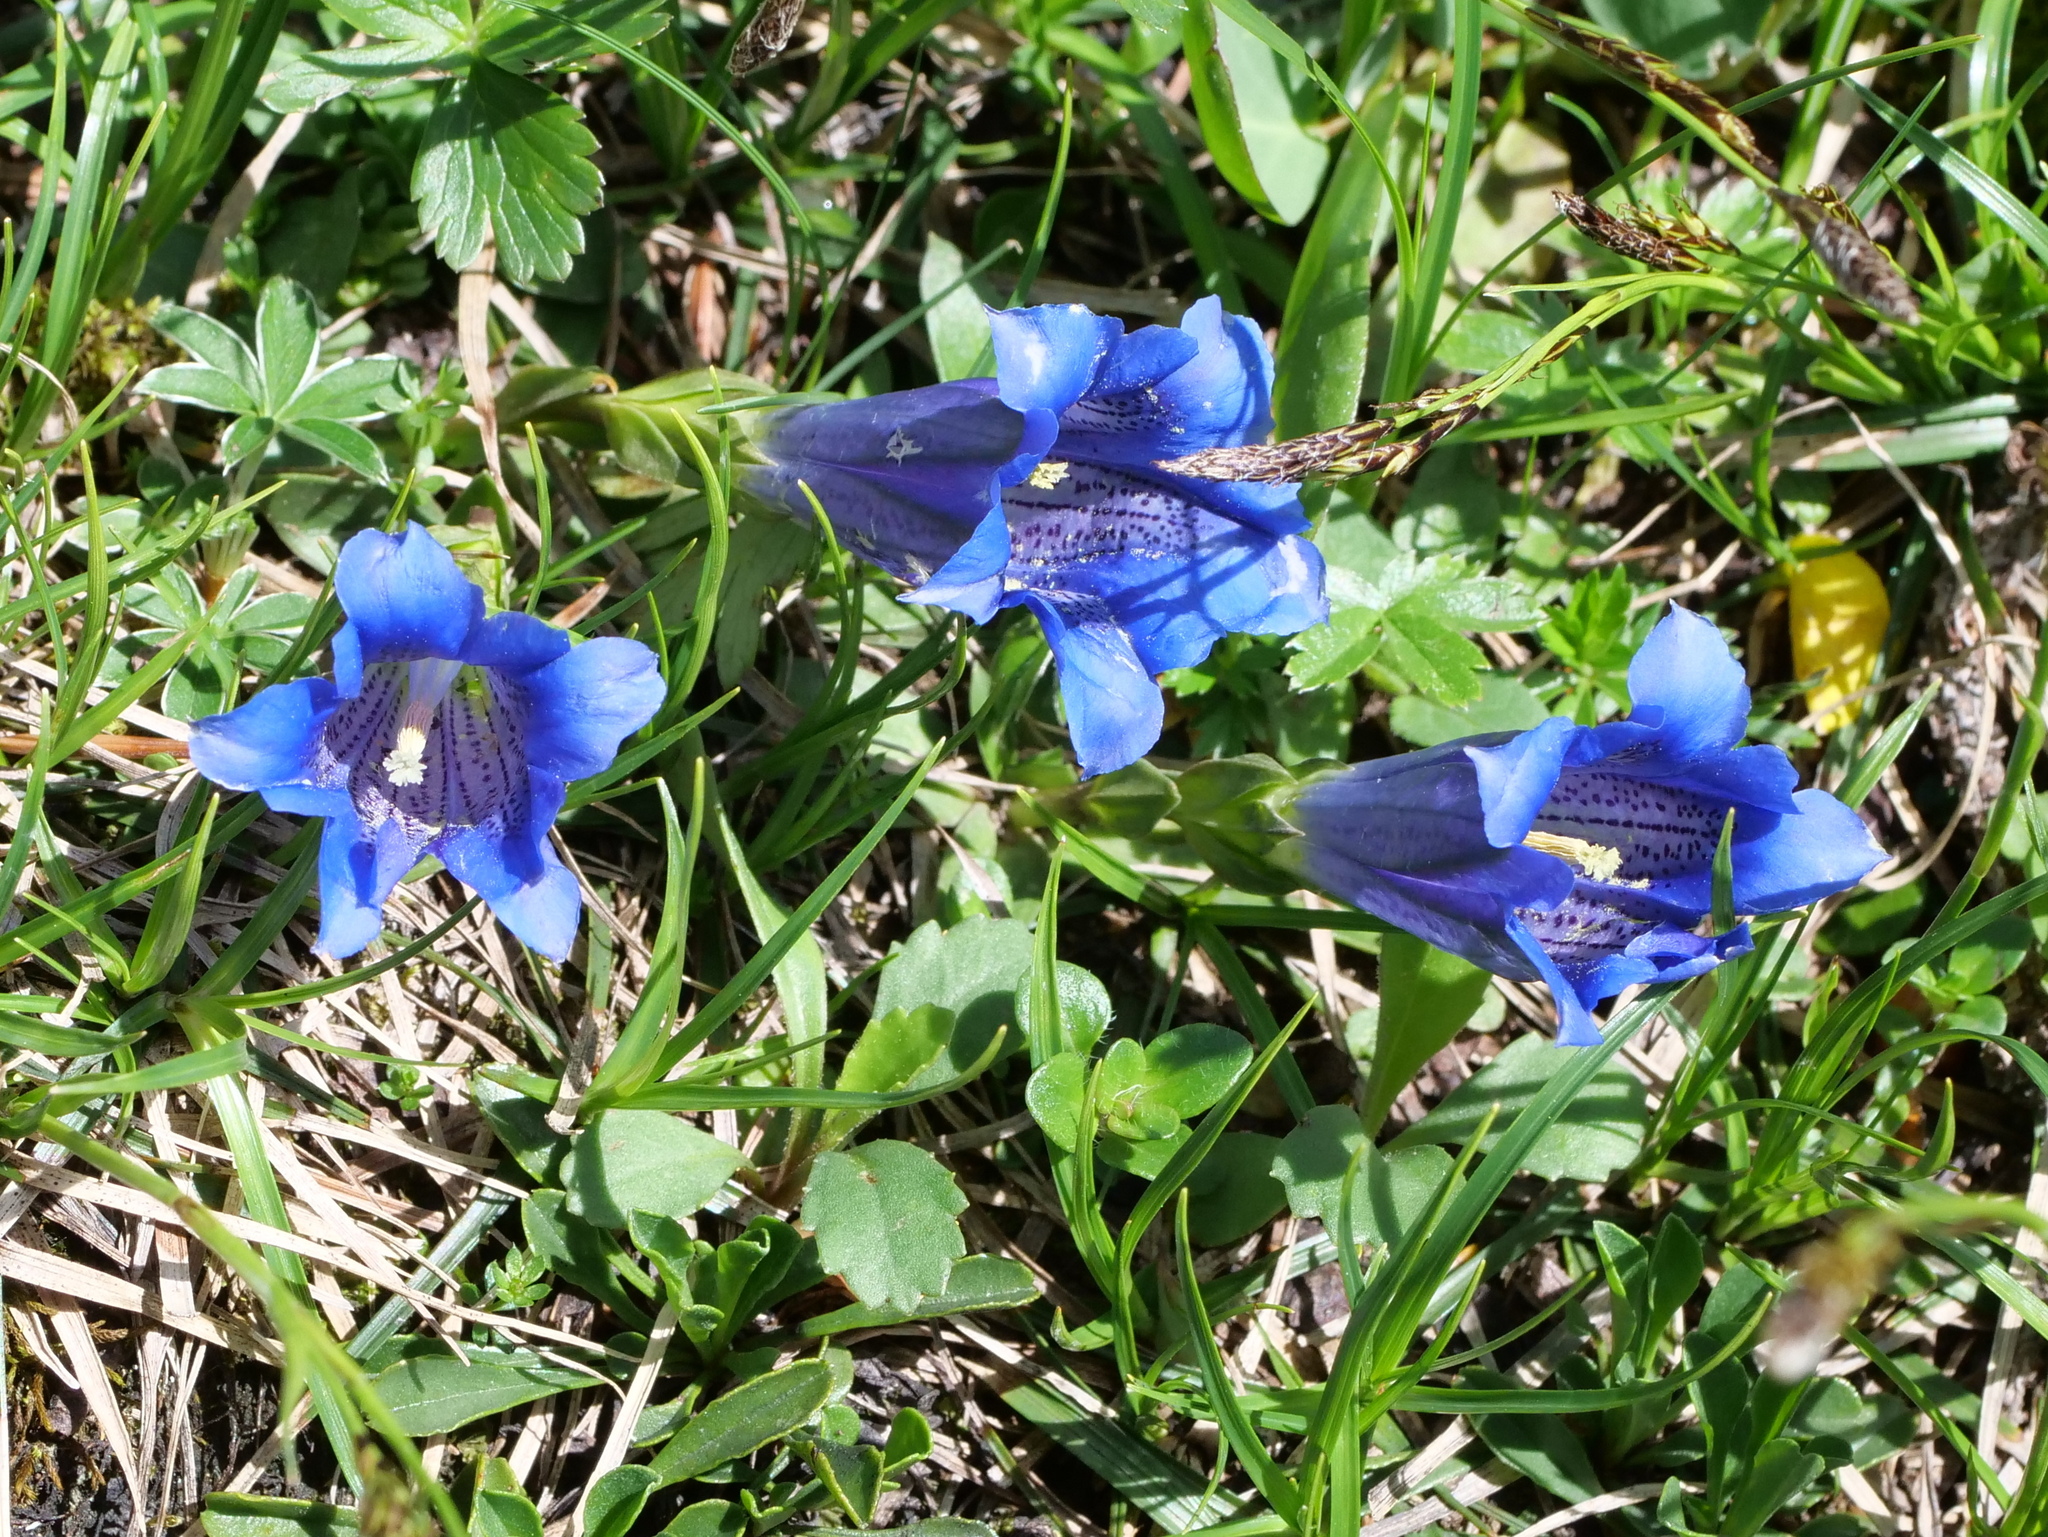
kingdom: Plantae
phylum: Tracheophyta
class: Magnoliopsida
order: Gentianales
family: Gentianaceae
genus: Gentiana
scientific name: Gentiana clusii
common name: Trumpet gentian
